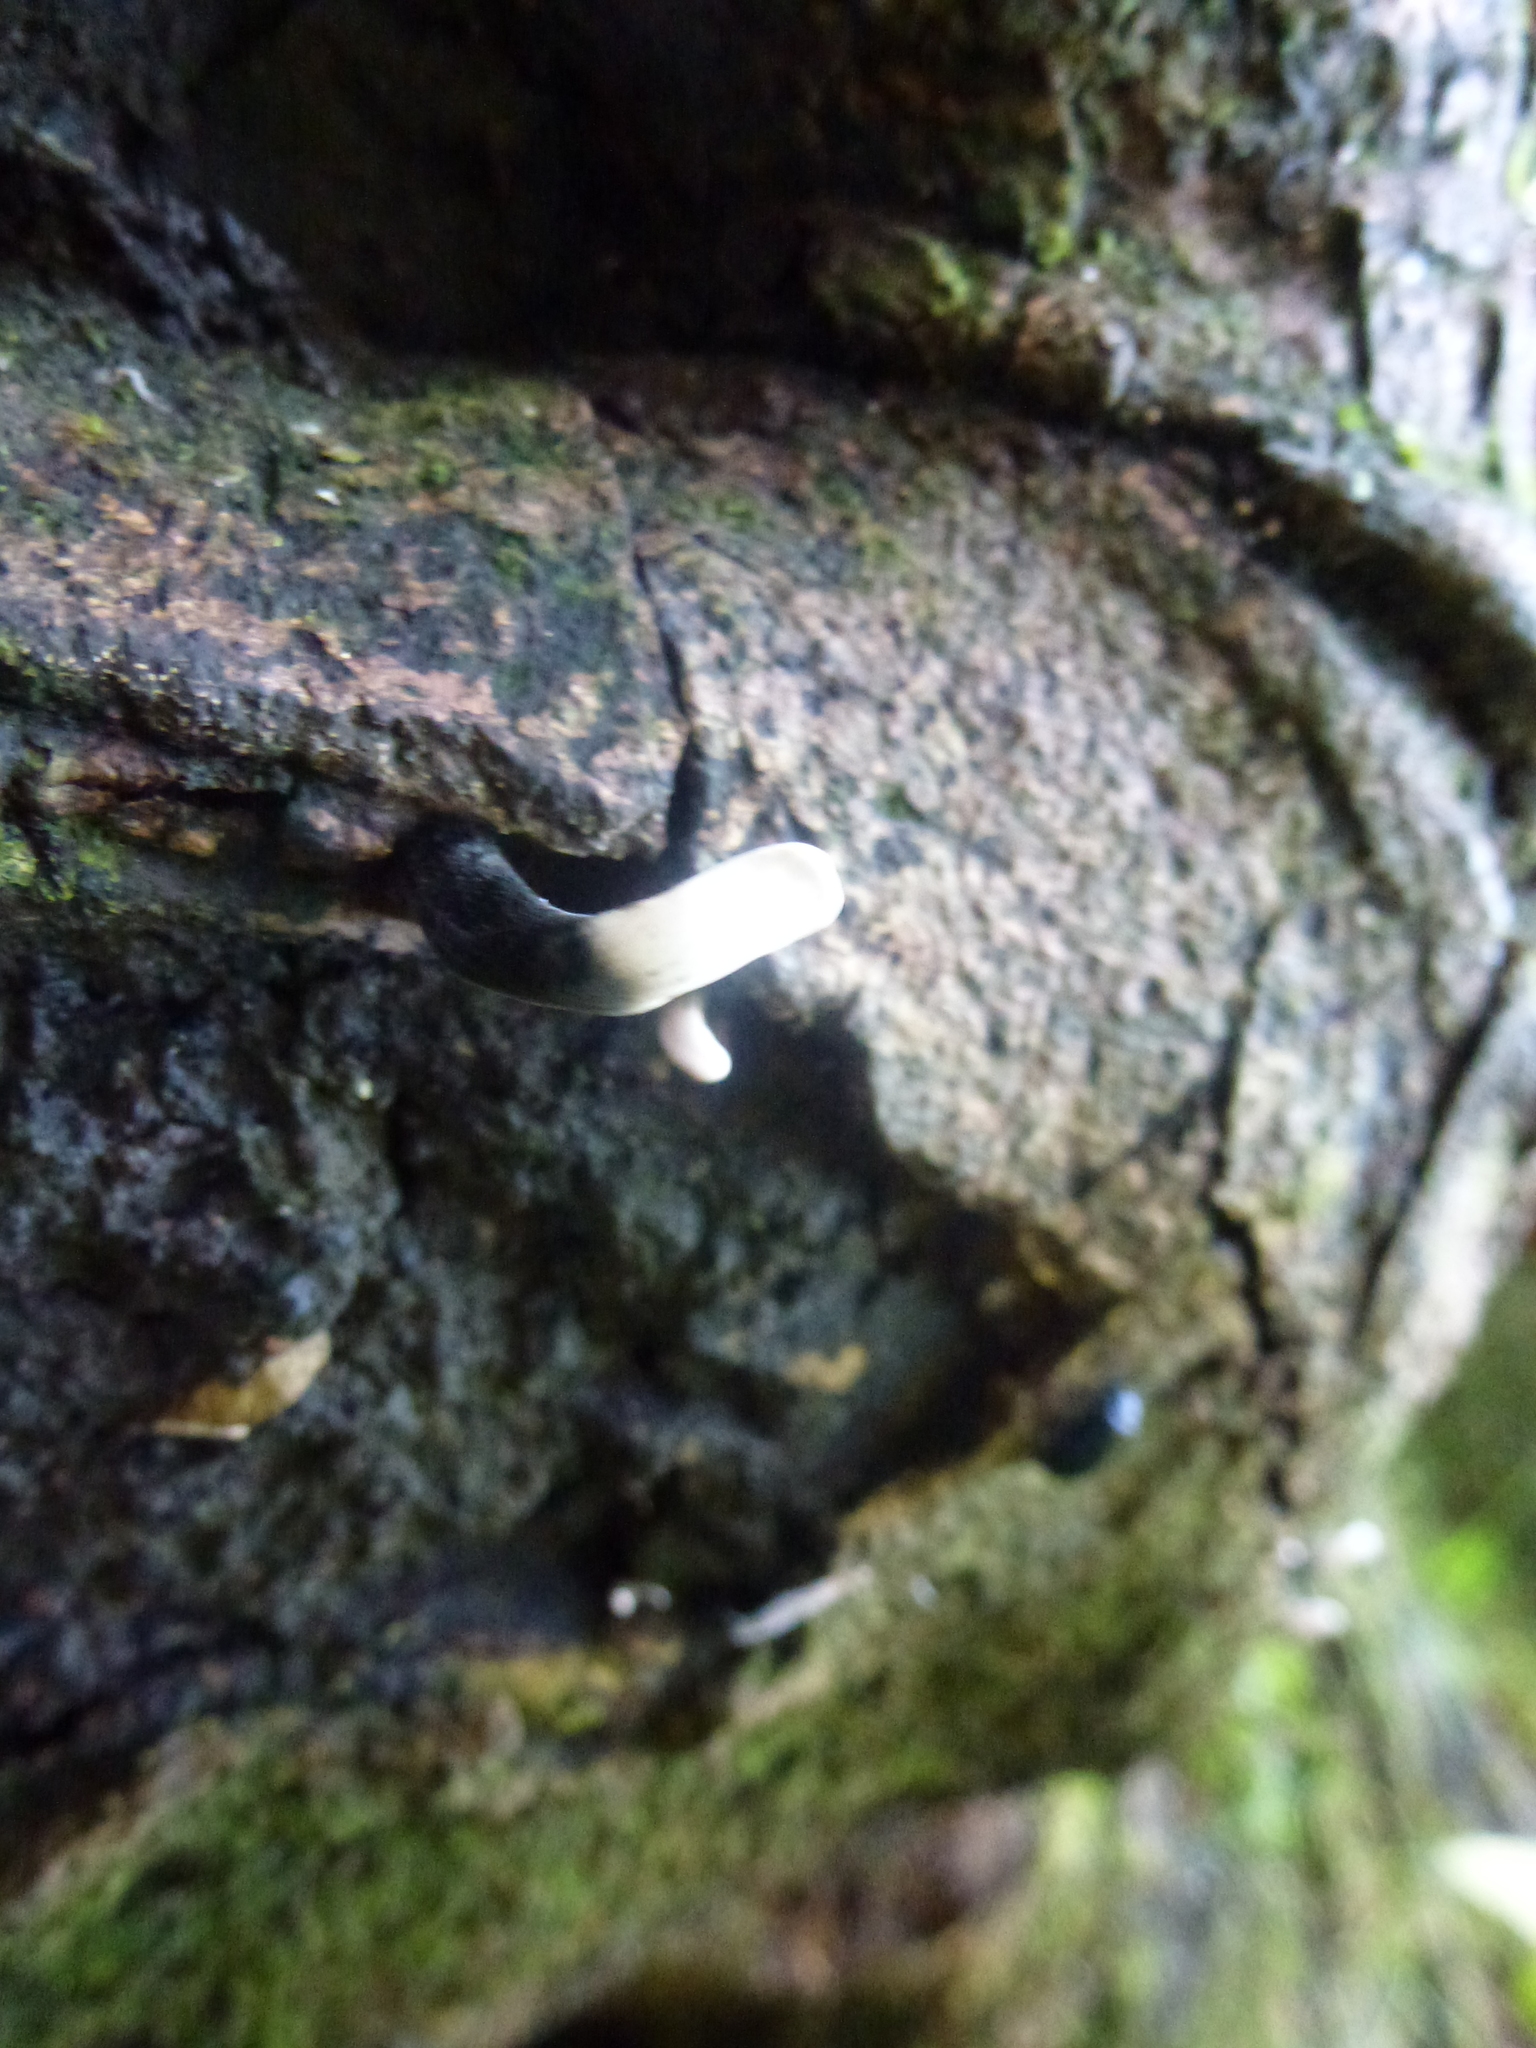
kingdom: Fungi
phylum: Ascomycota
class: Sordariomycetes
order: Xylariales
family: Xylariaceae
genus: Xylaria
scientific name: Xylaria hypoxylon
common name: Candle-snuff fungus
